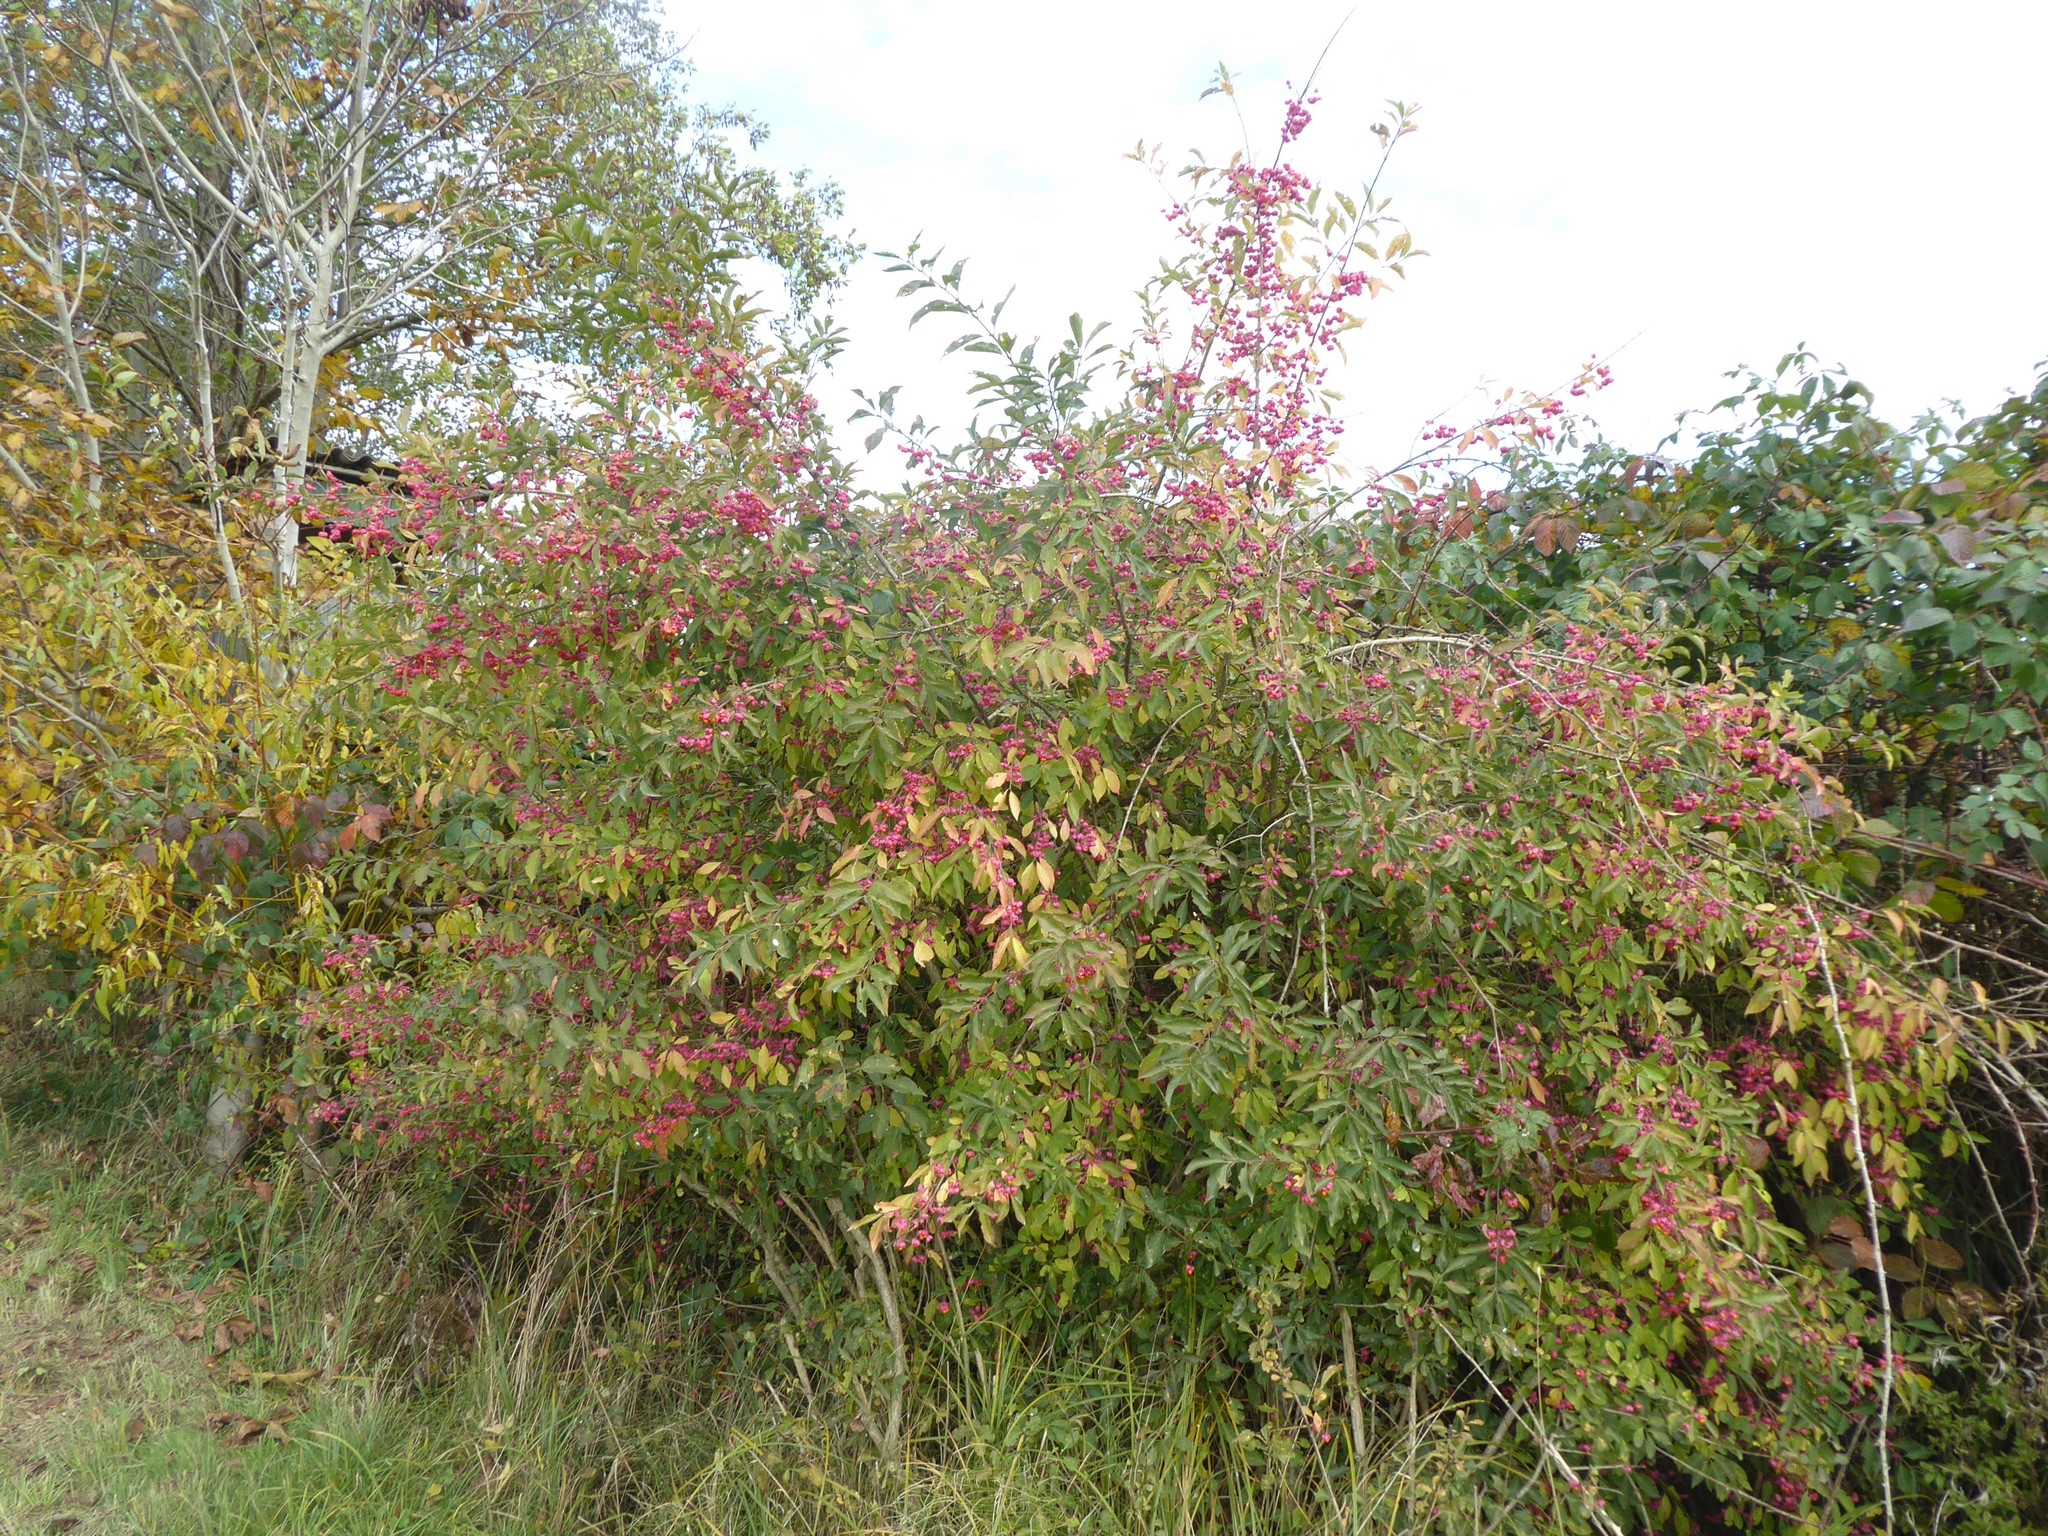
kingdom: Plantae
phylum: Tracheophyta
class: Magnoliopsida
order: Celastrales
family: Celastraceae
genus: Euonymus
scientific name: Euonymus europaeus
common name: Spindle
